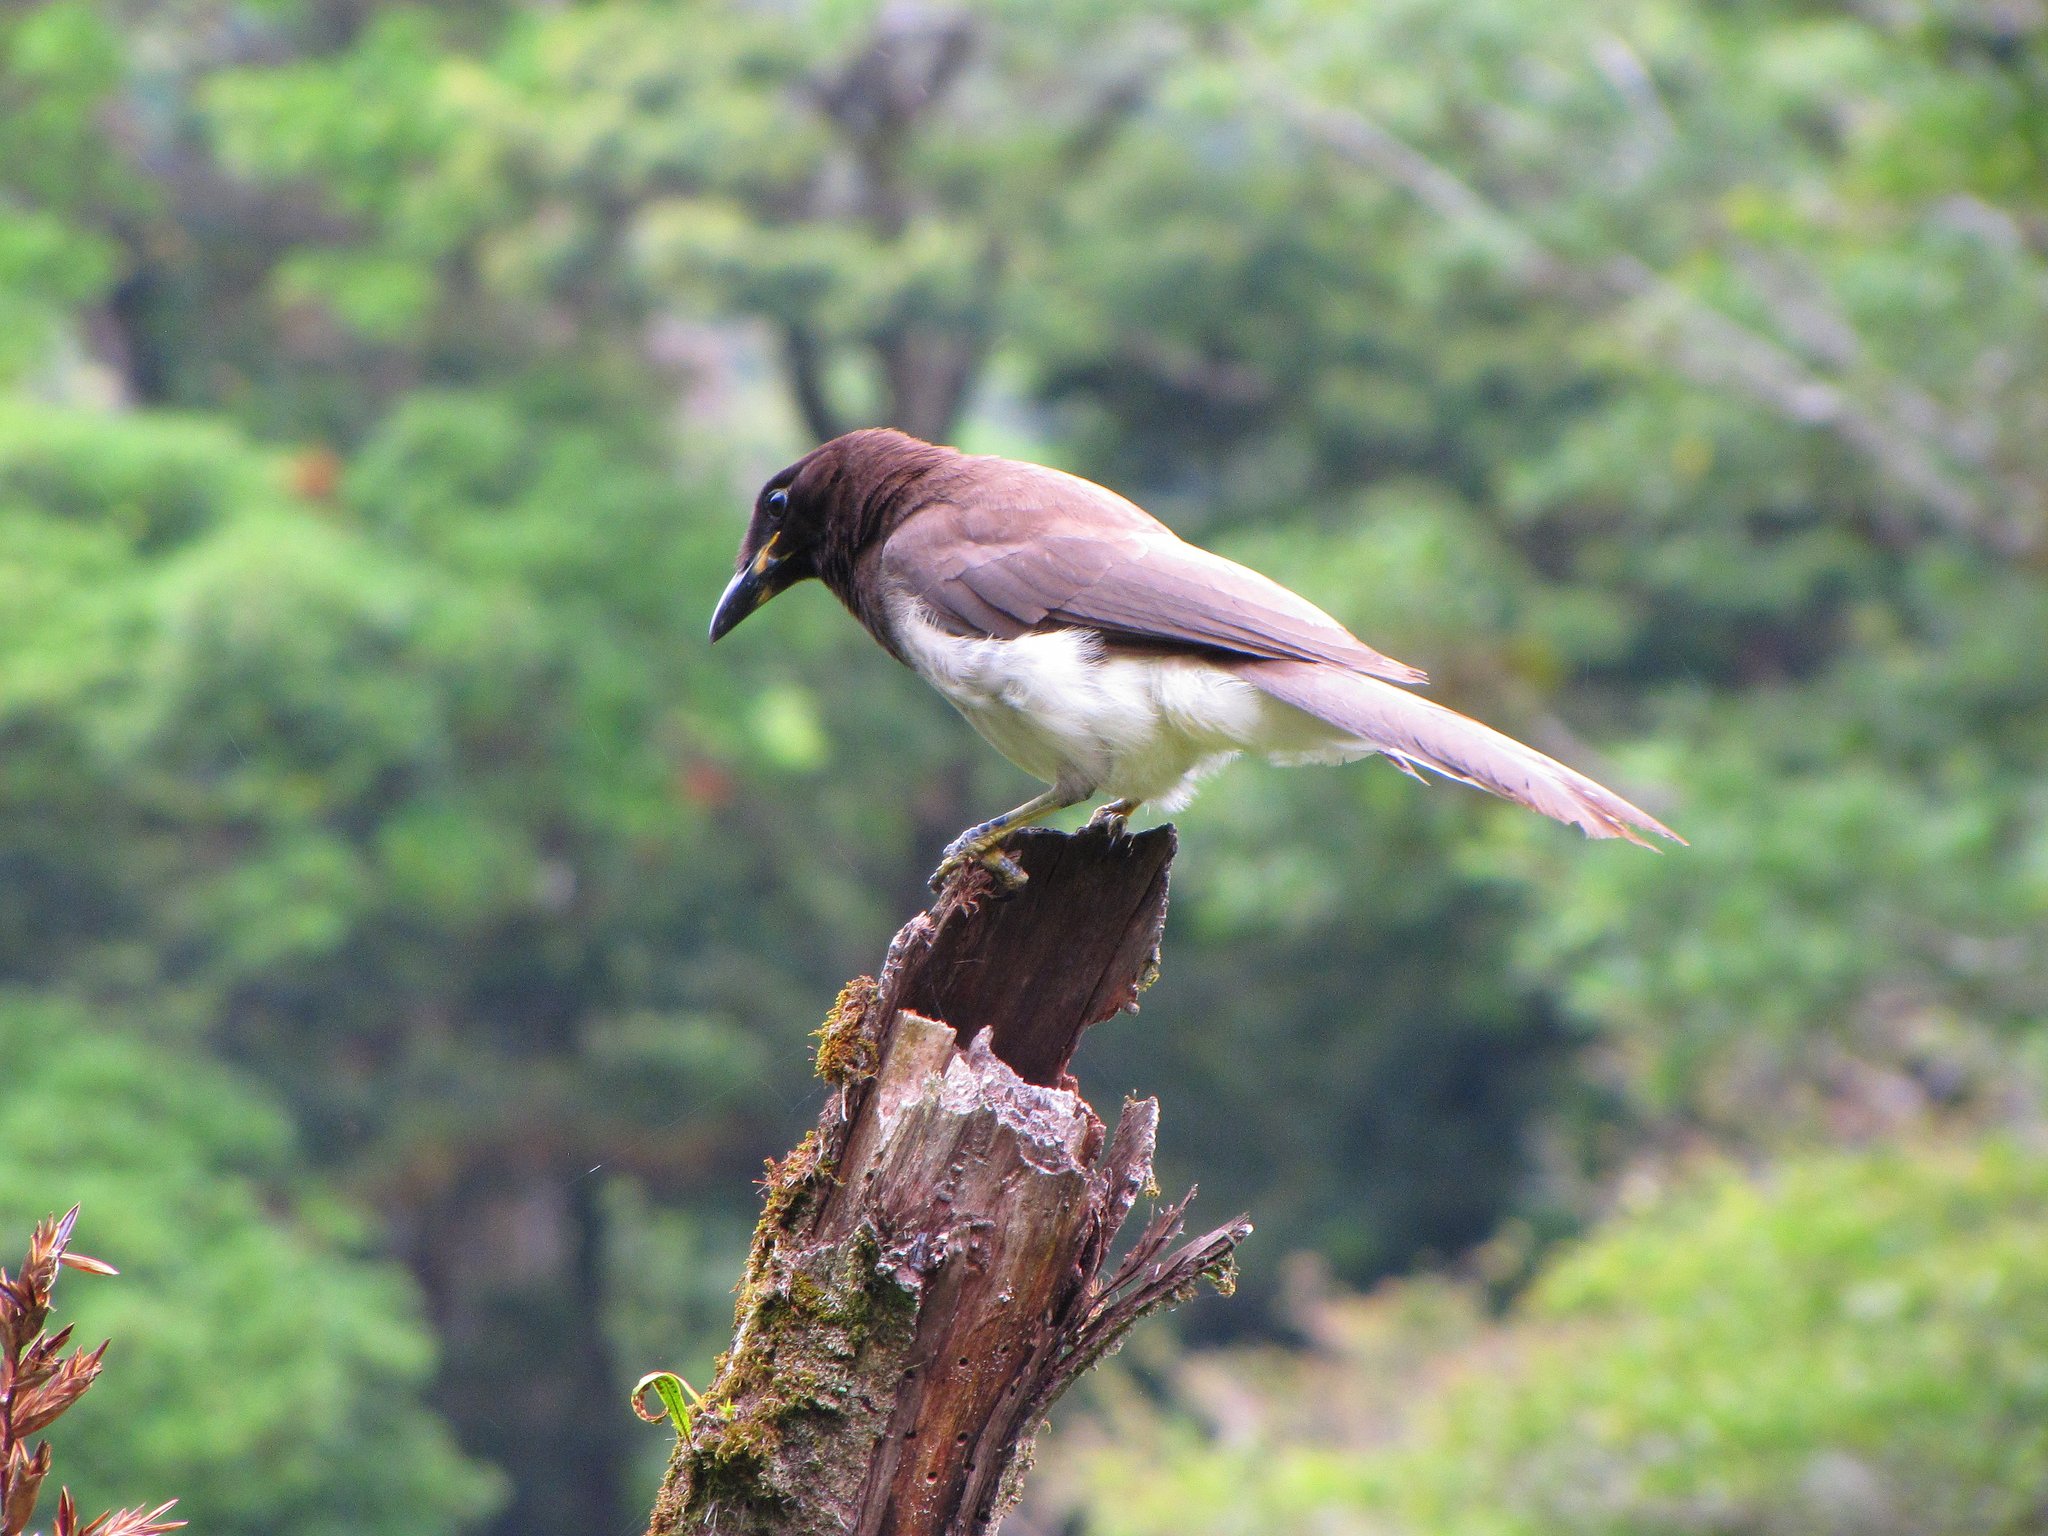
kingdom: Animalia
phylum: Chordata
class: Aves
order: Passeriformes
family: Corvidae
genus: Psilorhinus
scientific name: Psilorhinus morio
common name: Brown jay
